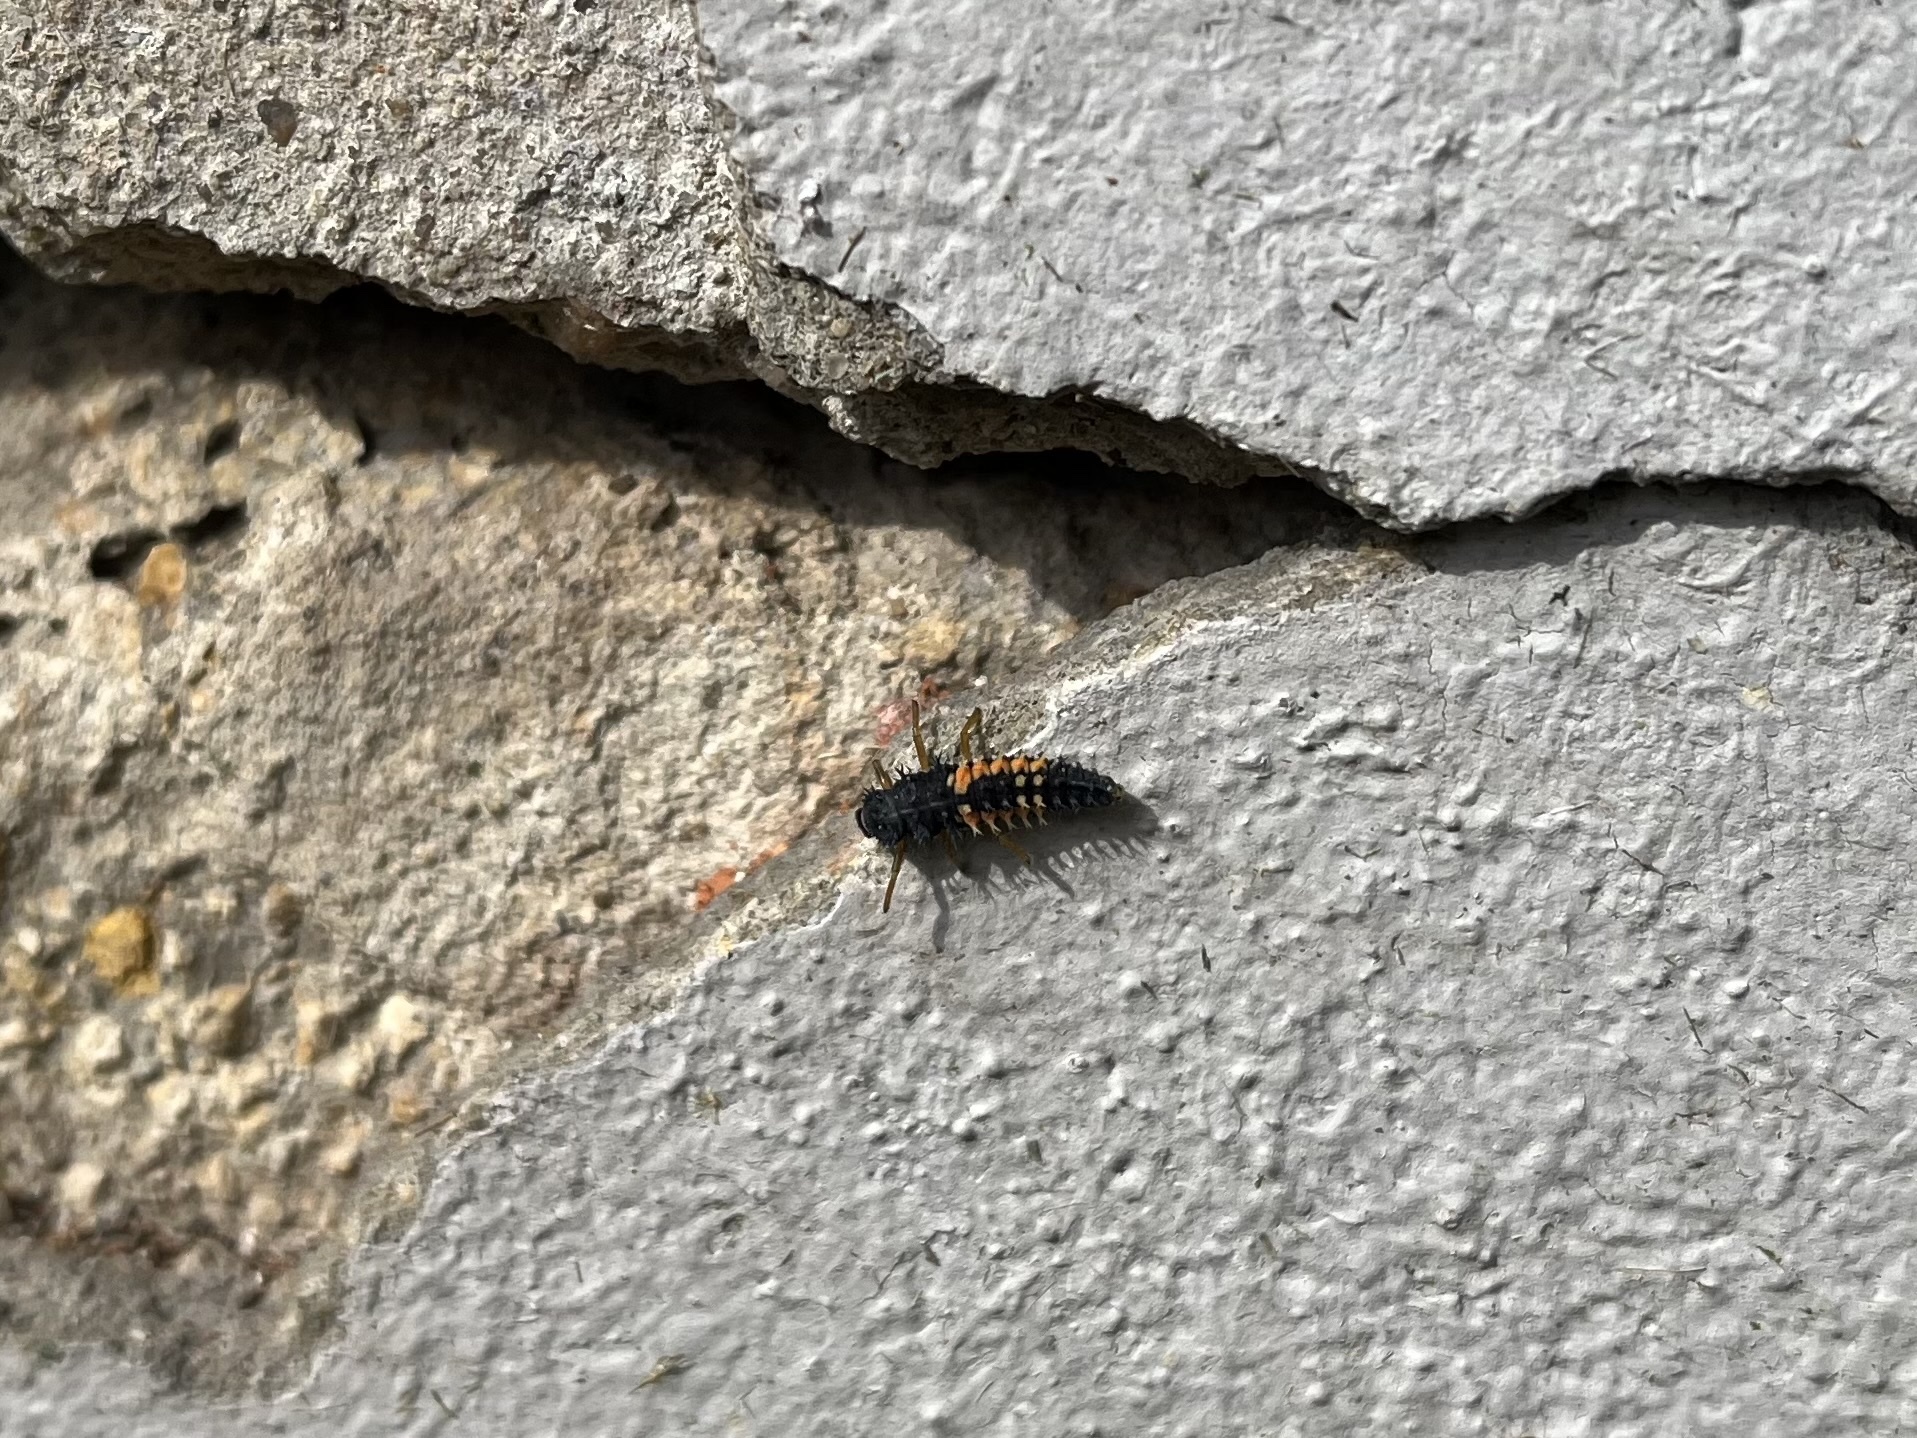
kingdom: Animalia
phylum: Arthropoda
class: Insecta
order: Coleoptera
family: Coccinellidae
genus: Harmonia
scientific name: Harmonia axyridis
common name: Harlequin ladybird
